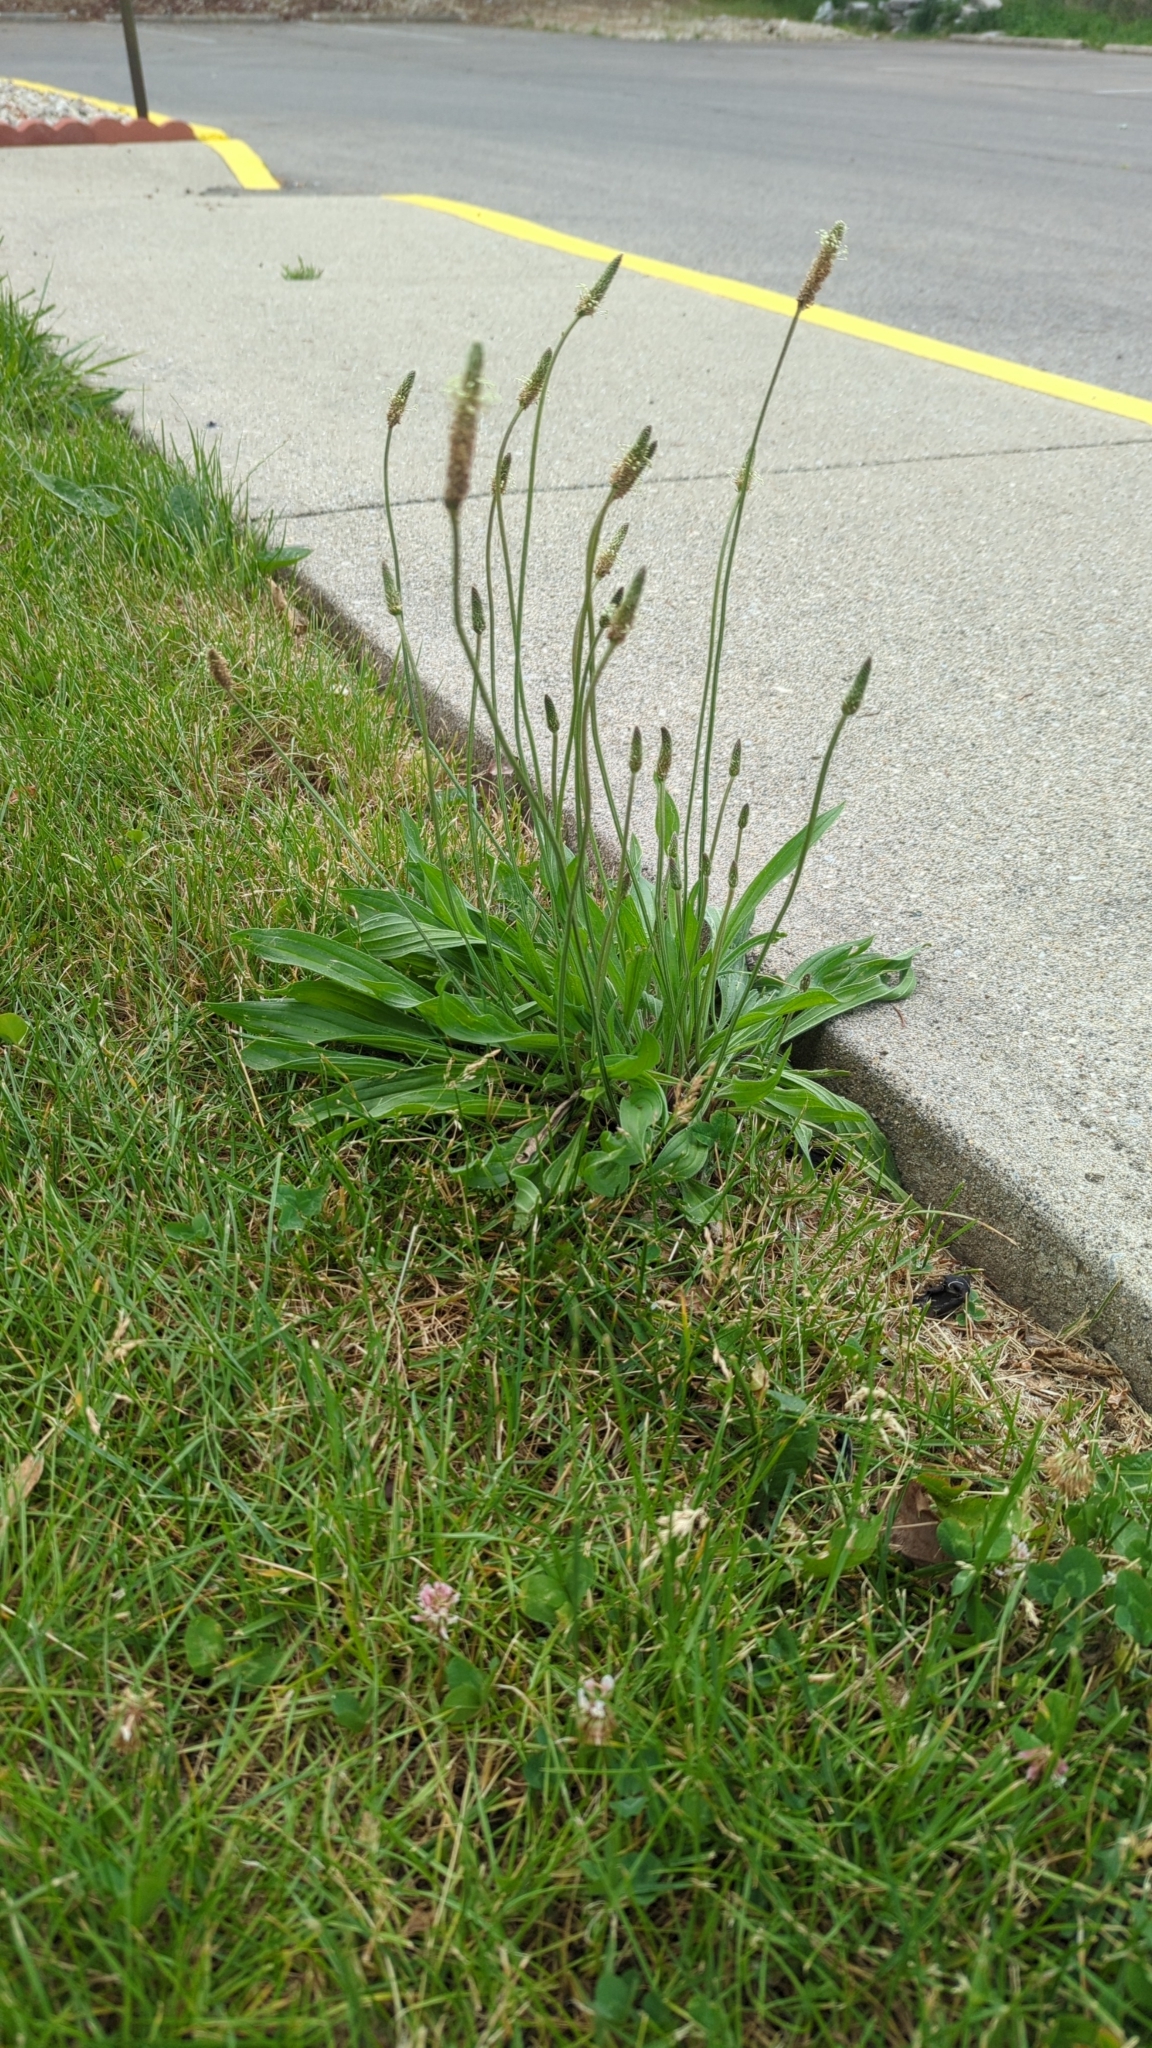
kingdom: Plantae
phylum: Tracheophyta
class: Magnoliopsida
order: Lamiales
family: Plantaginaceae
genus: Plantago
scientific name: Plantago lanceolata
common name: Ribwort plantain
